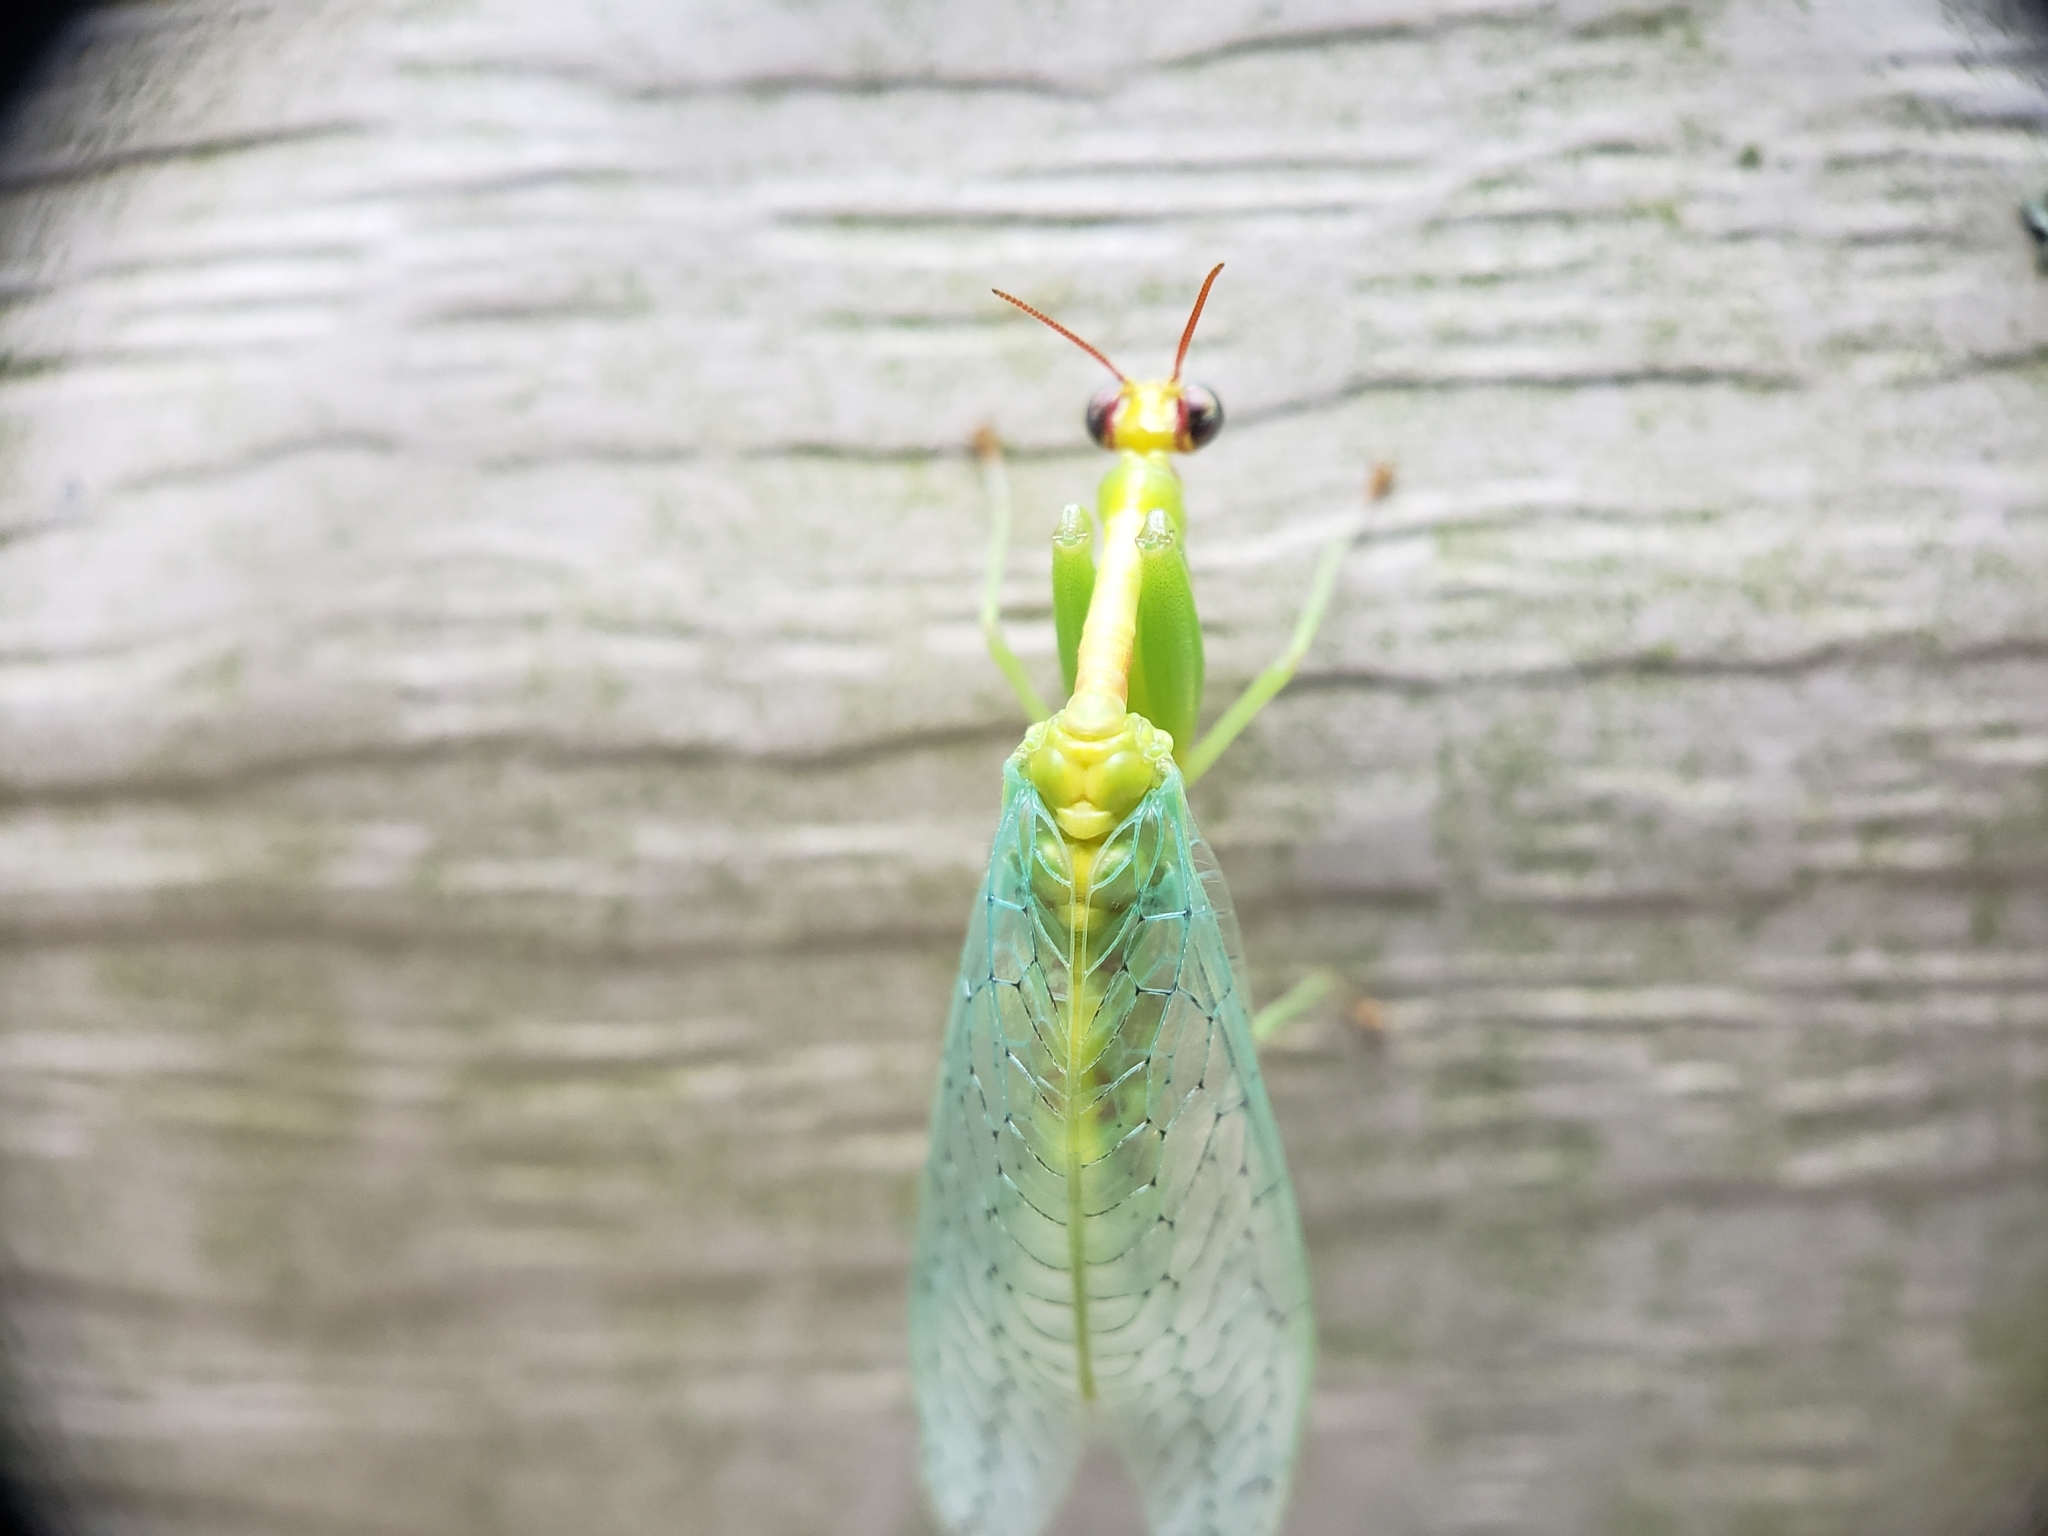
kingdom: Animalia
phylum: Arthropoda
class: Insecta
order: Neuroptera
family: Mantispidae
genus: Zeugomantispa
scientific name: Zeugomantispa minuta
